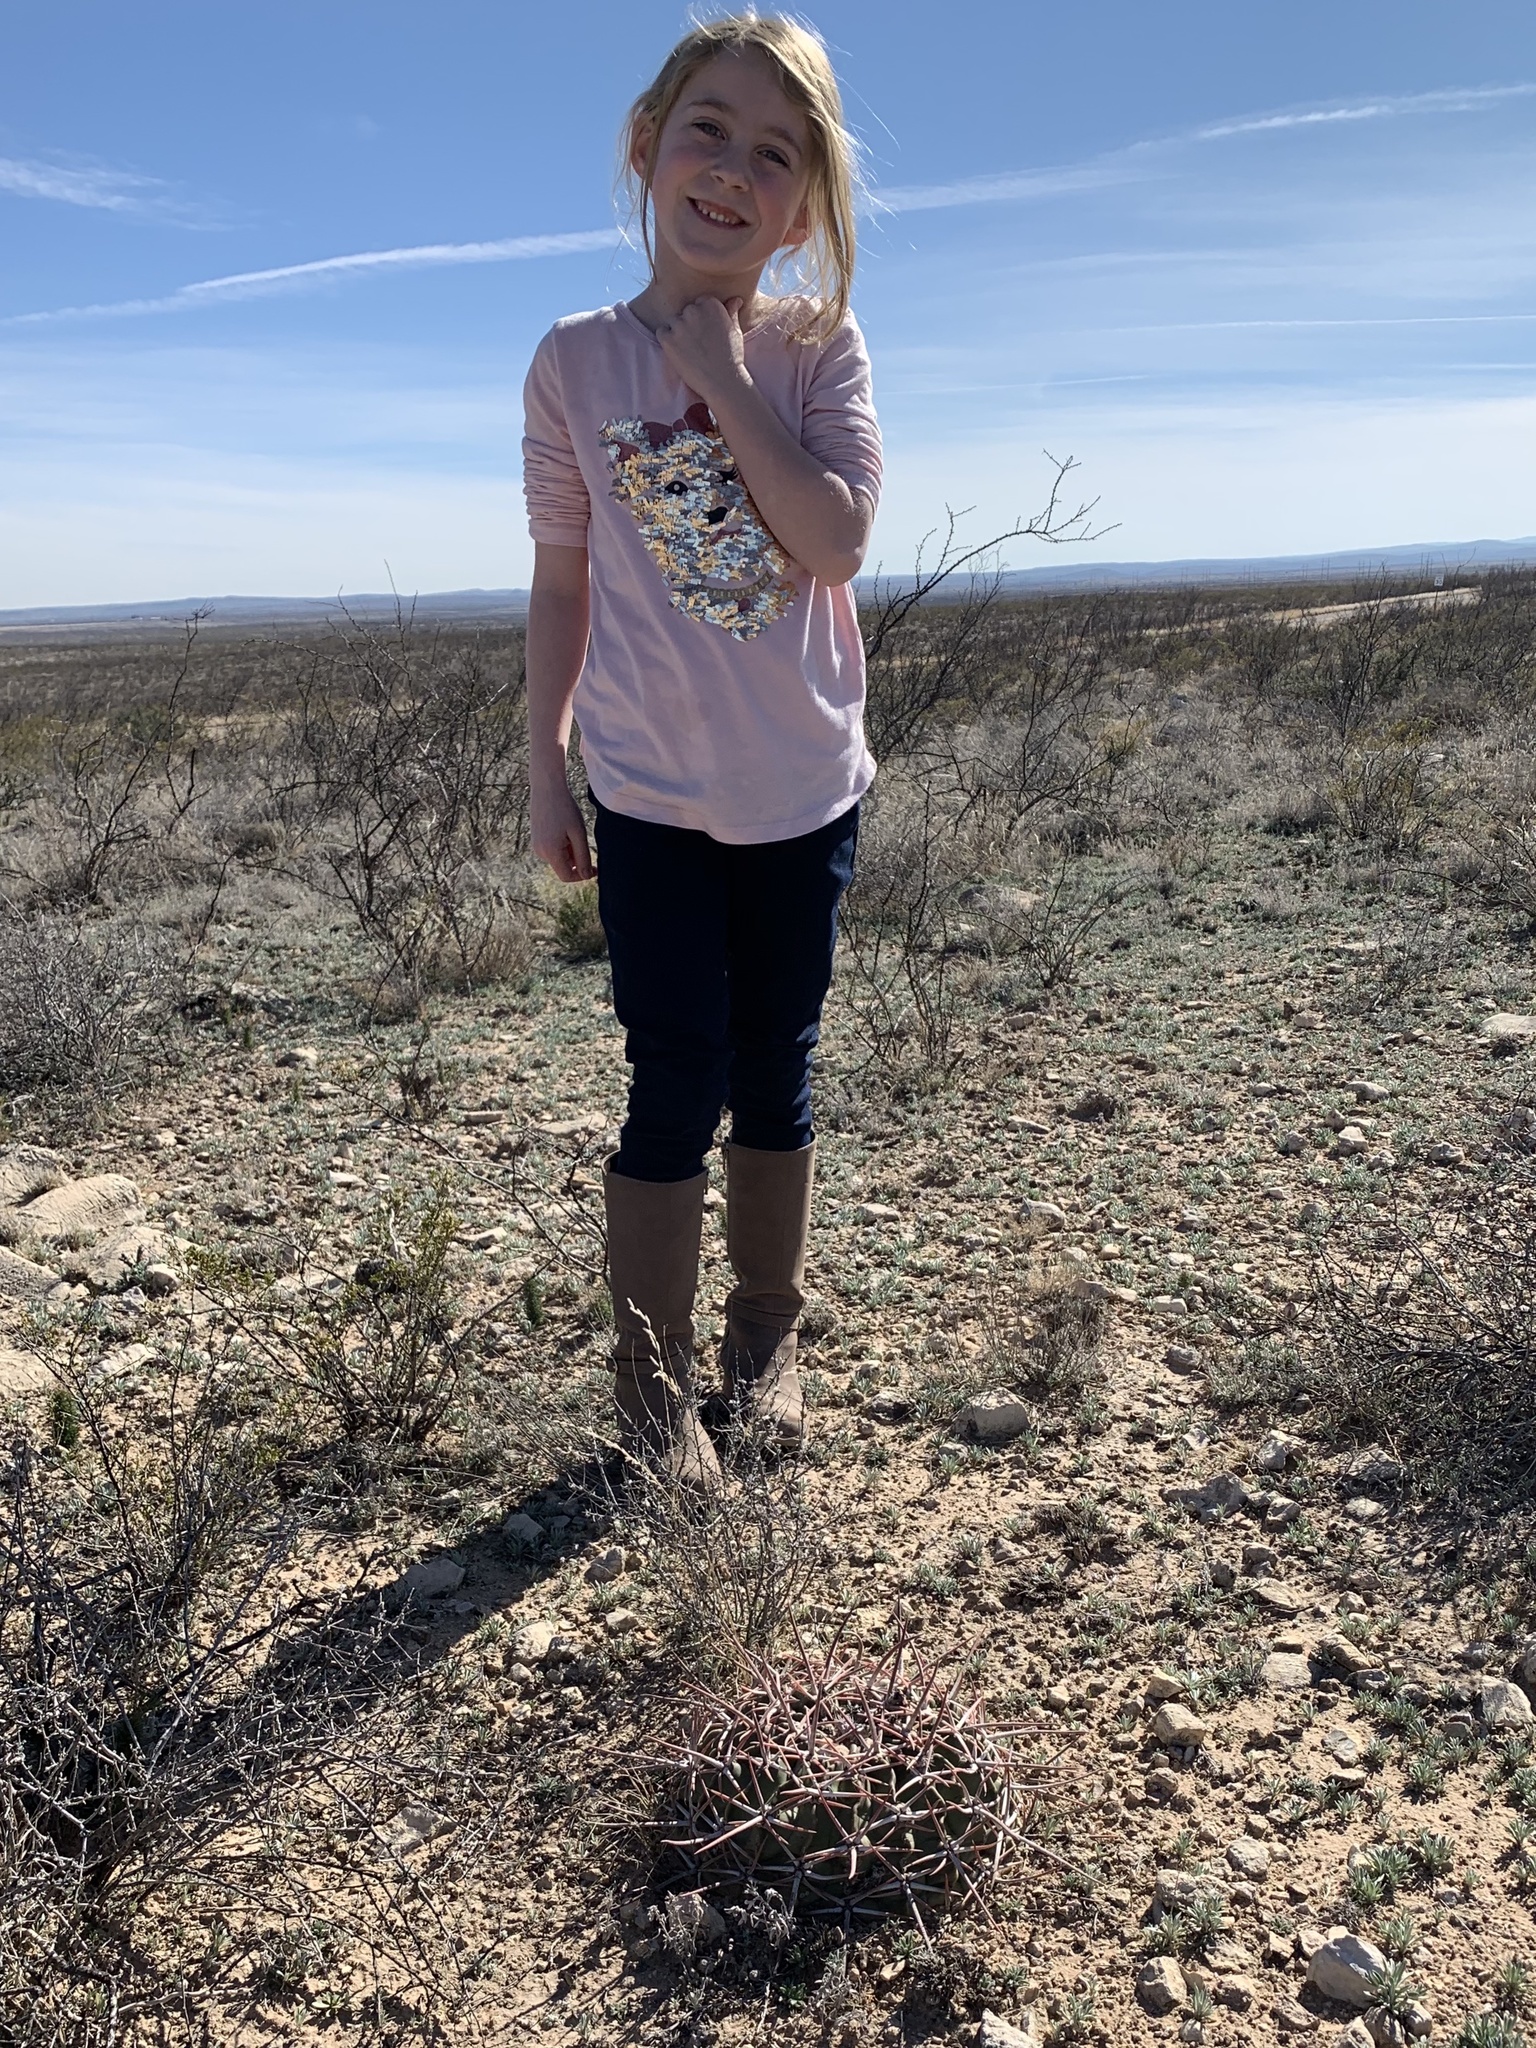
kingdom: Plantae
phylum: Tracheophyta
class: Magnoliopsida
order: Caryophyllales
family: Cactaceae
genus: Echinocactus
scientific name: Echinocactus texensis
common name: Devil's pincushion
